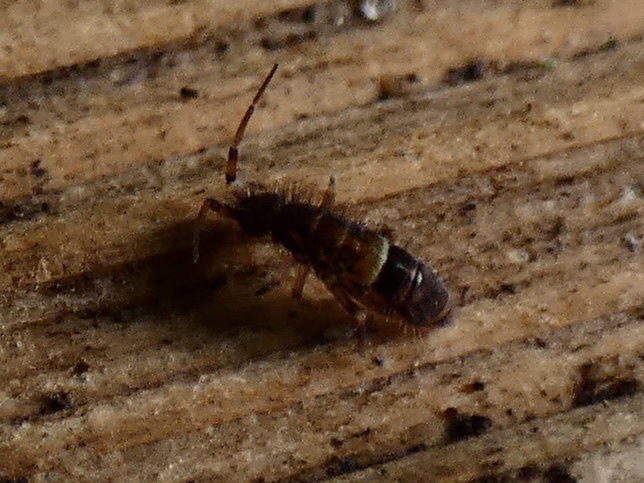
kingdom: Animalia
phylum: Arthropoda
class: Collembola
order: Entomobryomorpha
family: Orchesellidae
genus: Orchesella
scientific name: Orchesella cincta
